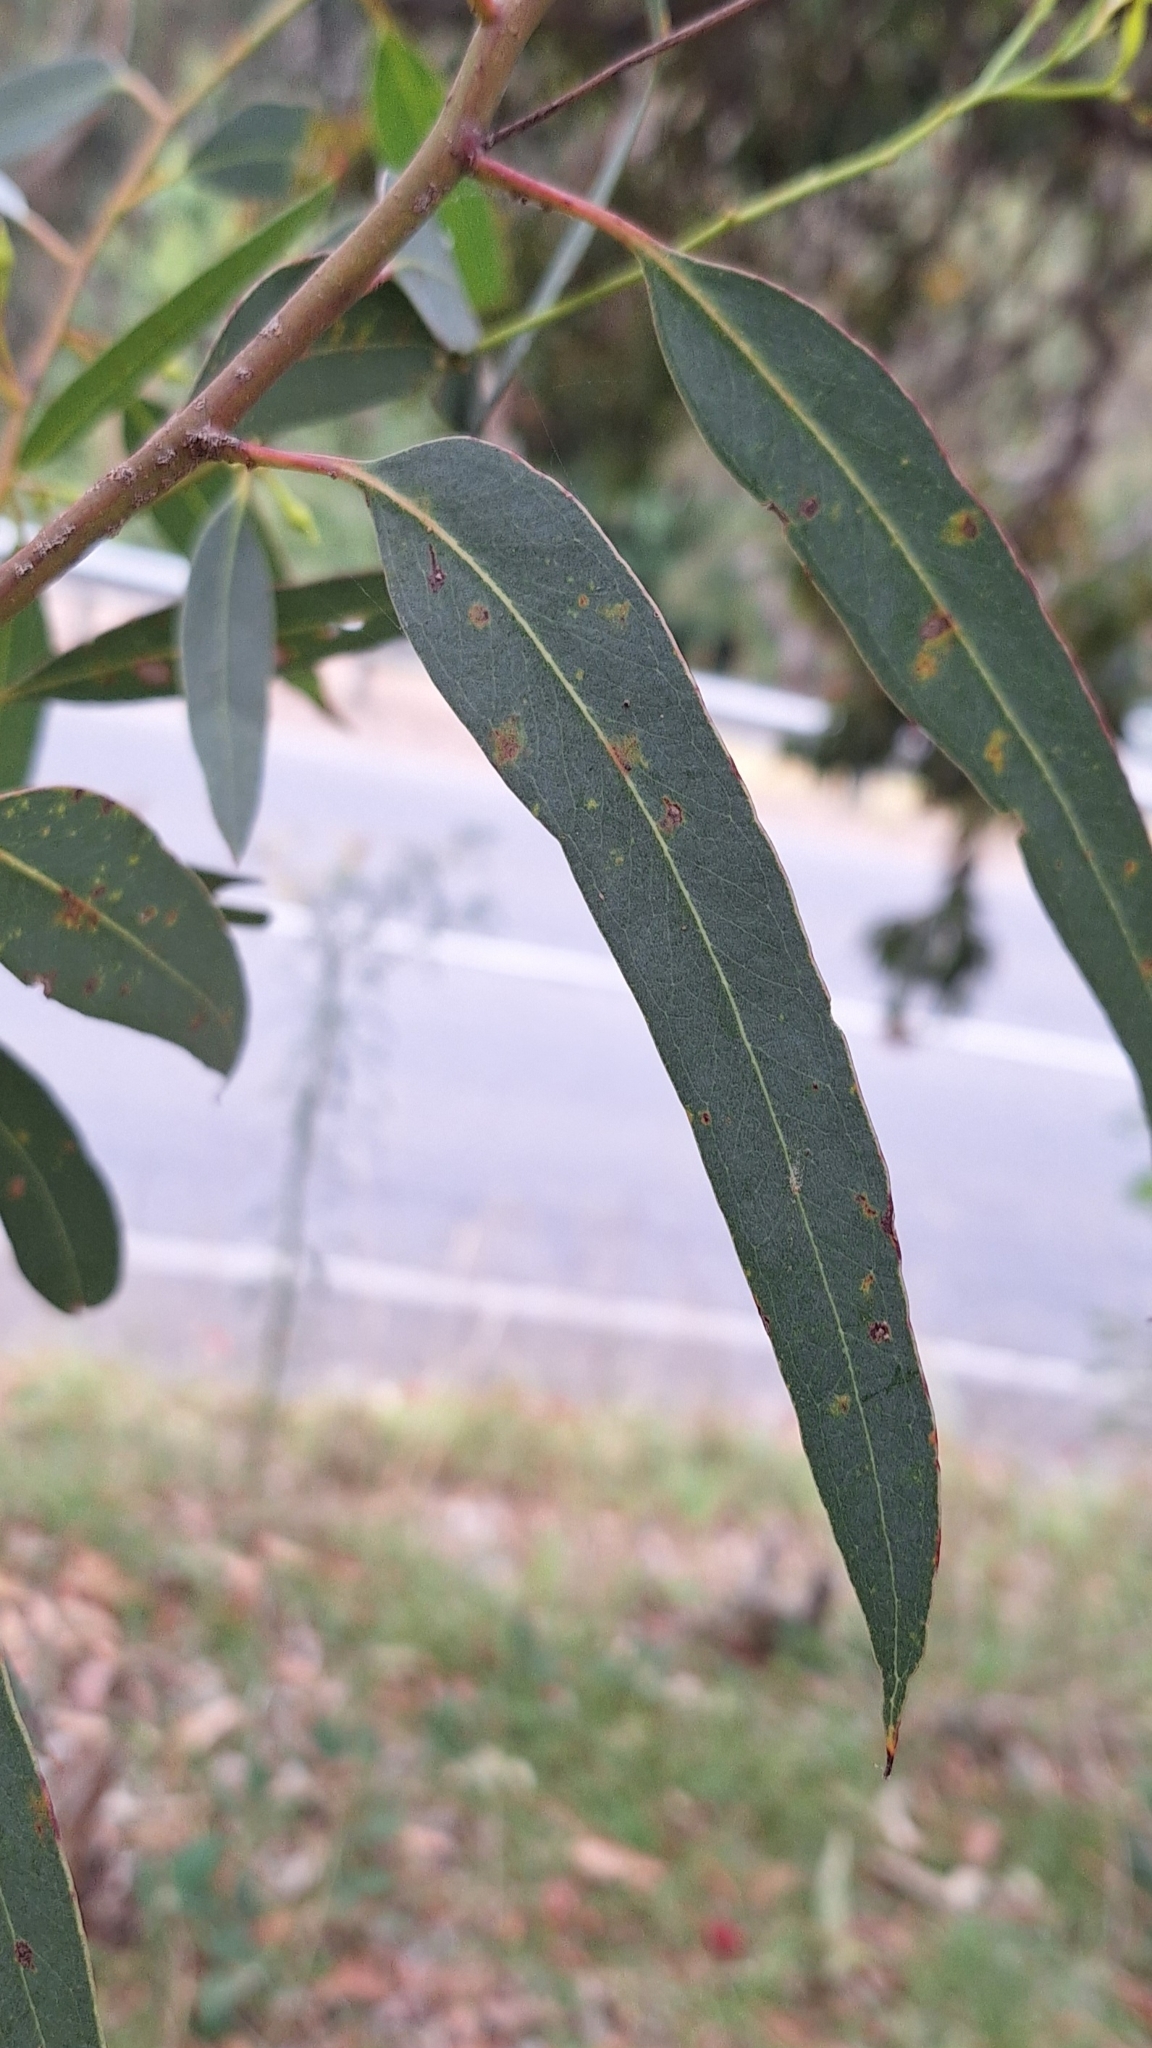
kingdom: Plantae
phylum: Tracheophyta
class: Magnoliopsida
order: Myrtales
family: Myrtaceae
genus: Eucalyptus
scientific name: Eucalyptus leucoxylon
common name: Blue gum
